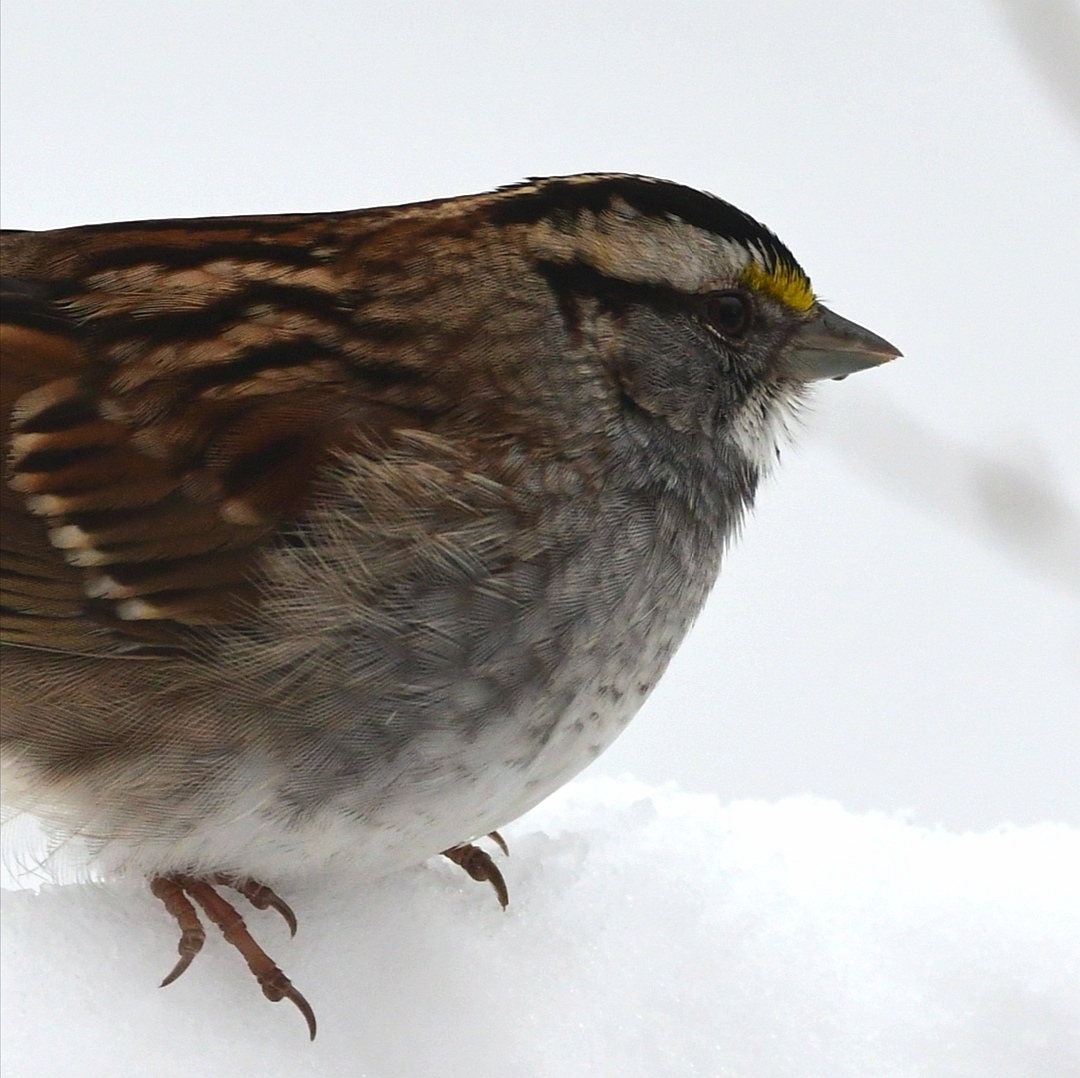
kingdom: Animalia
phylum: Chordata
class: Aves
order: Passeriformes
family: Passerellidae
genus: Zonotrichia
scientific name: Zonotrichia albicollis
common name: White-throated sparrow
